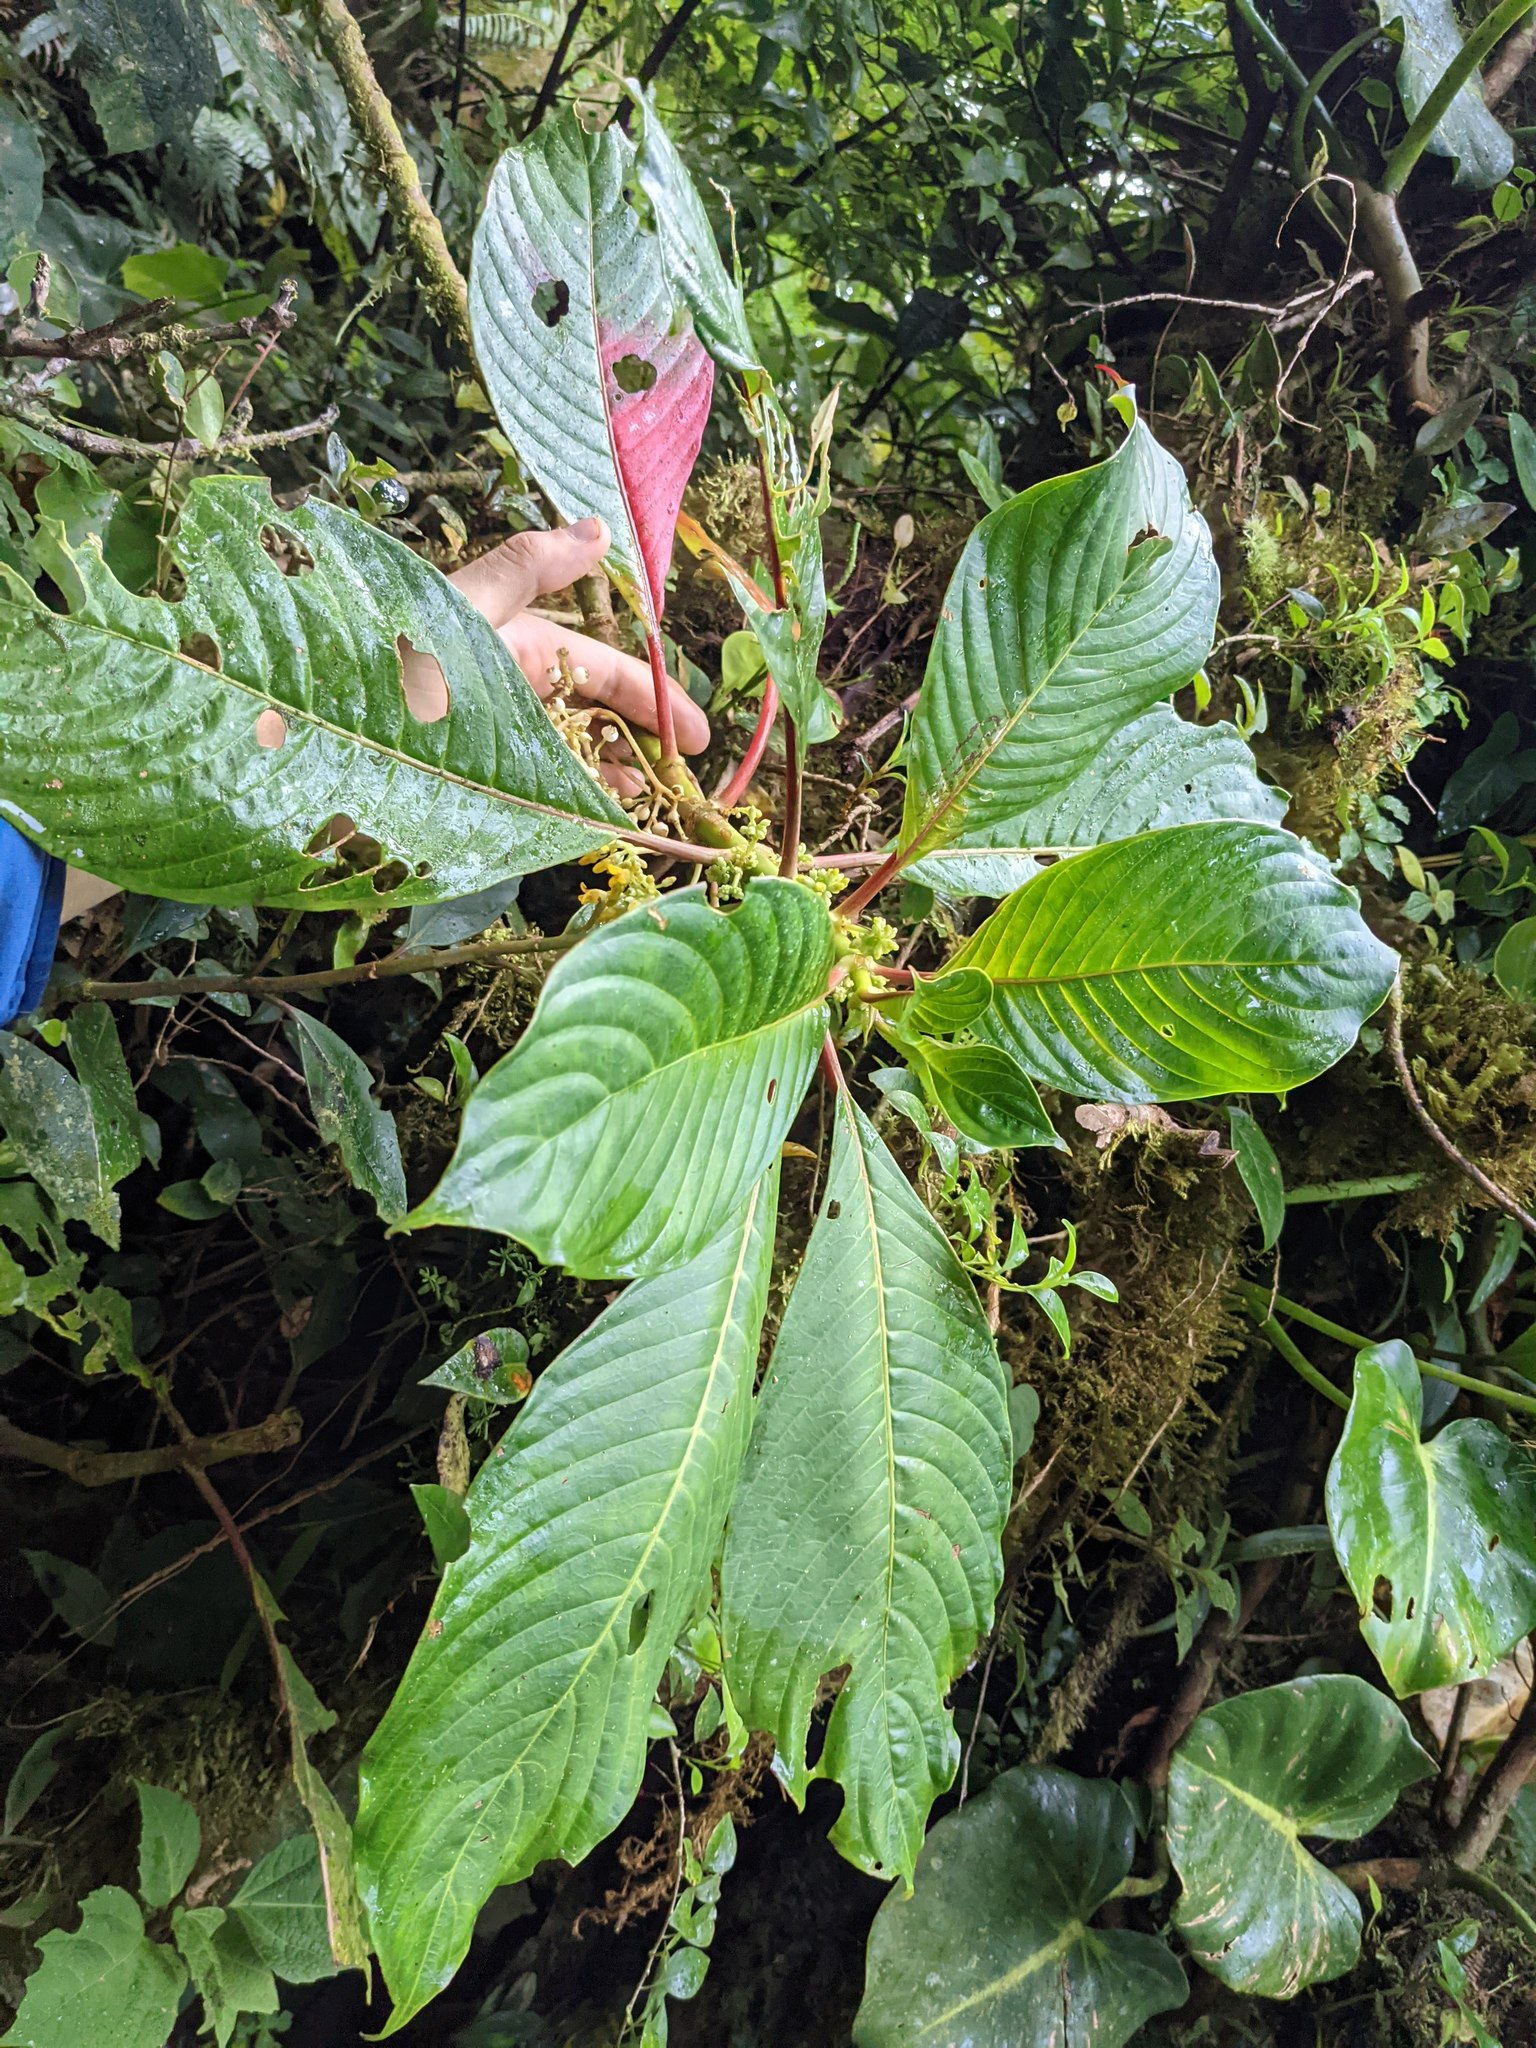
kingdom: Plantae
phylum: Tracheophyta
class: Magnoliopsida
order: Gentianales
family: Rubiaceae
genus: Hoffmannia
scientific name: Hoffmannia josefina
